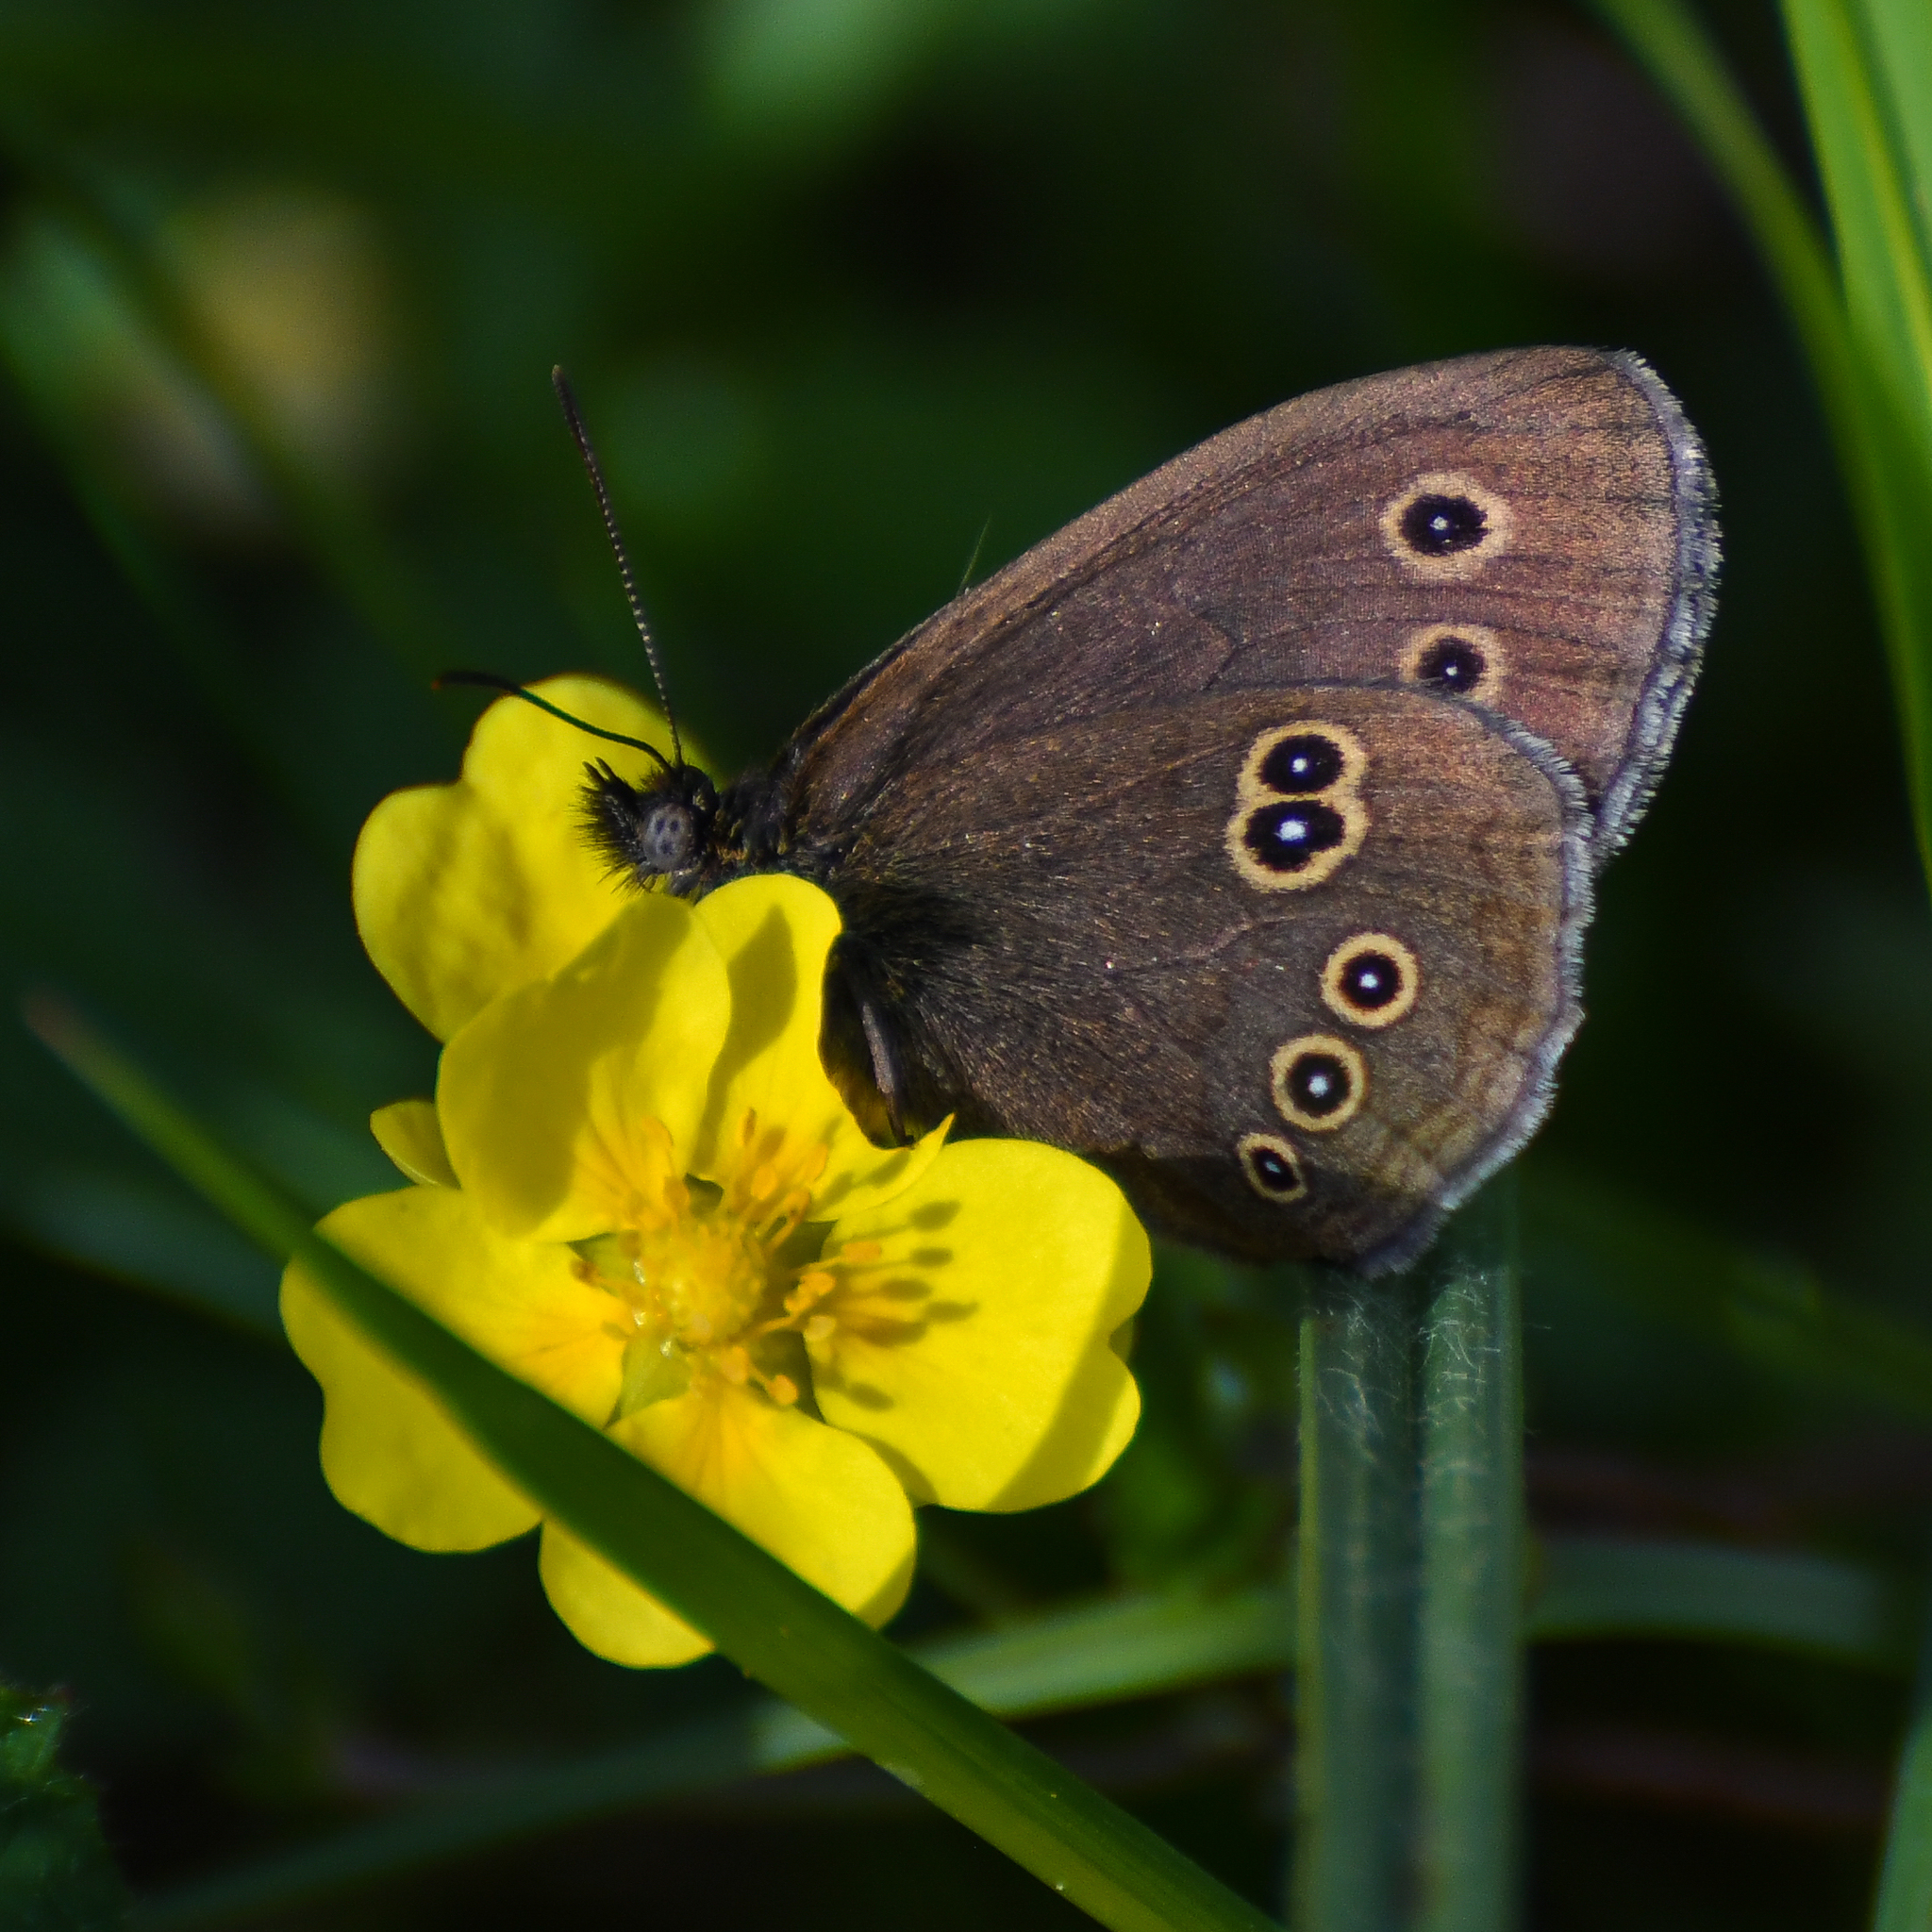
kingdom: Animalia
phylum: Arthropoda
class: Insecta
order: Lepidoptera
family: Nymphalidae
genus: Aphantopus
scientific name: Aphantopus hyperantus
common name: Ringlet
